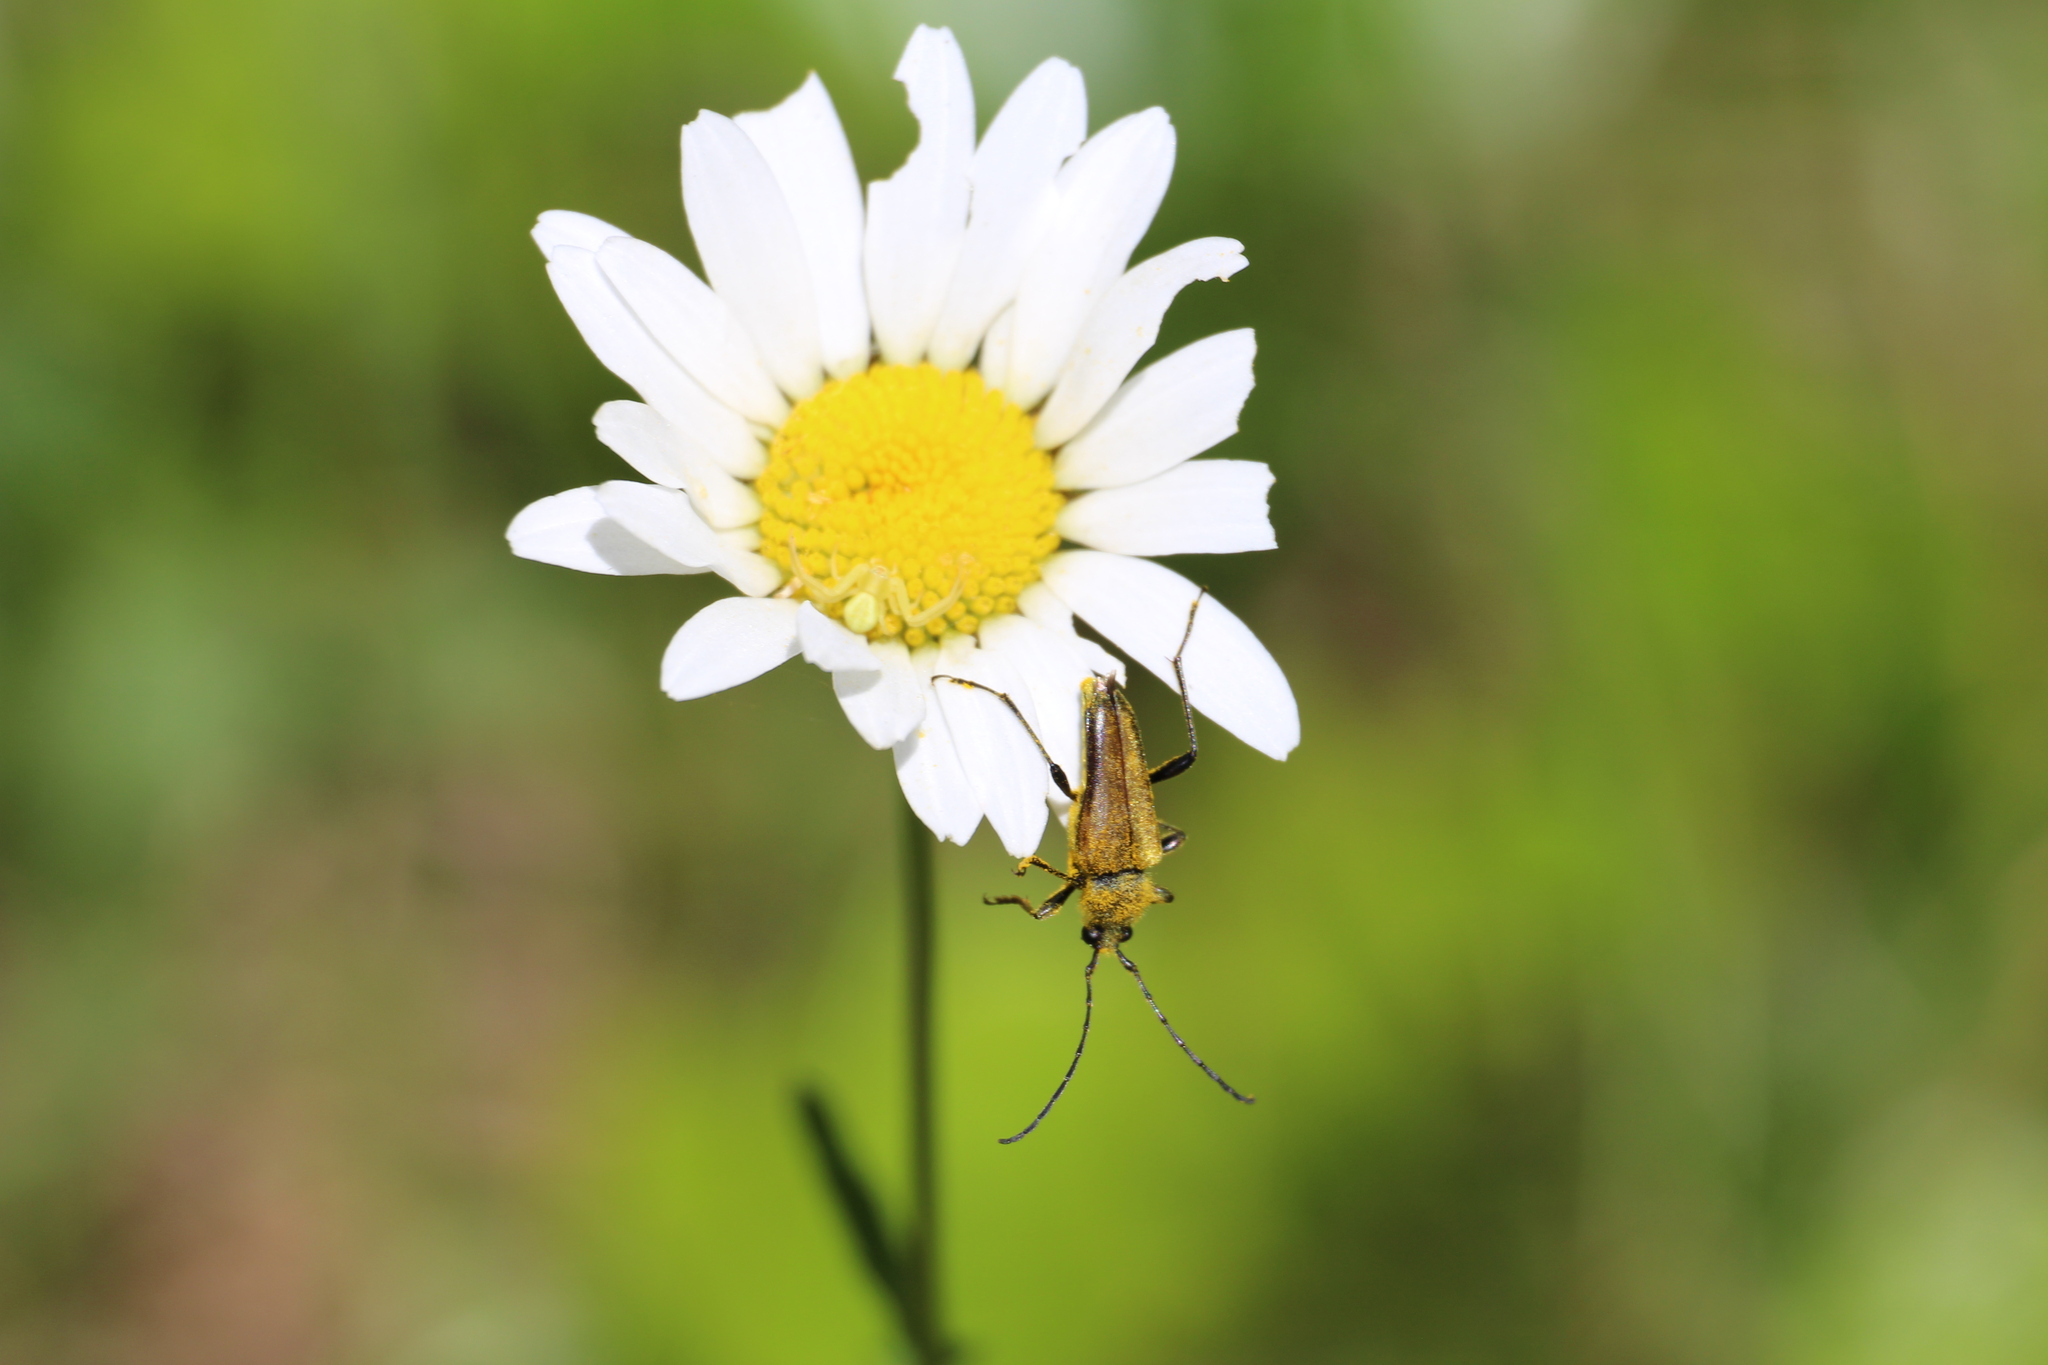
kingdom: Animalia
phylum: Arthropoda
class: Insecta
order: Coleoptera
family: Cerambycidae
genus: Cosmosalia
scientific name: Cosmosalia chrysocoma
